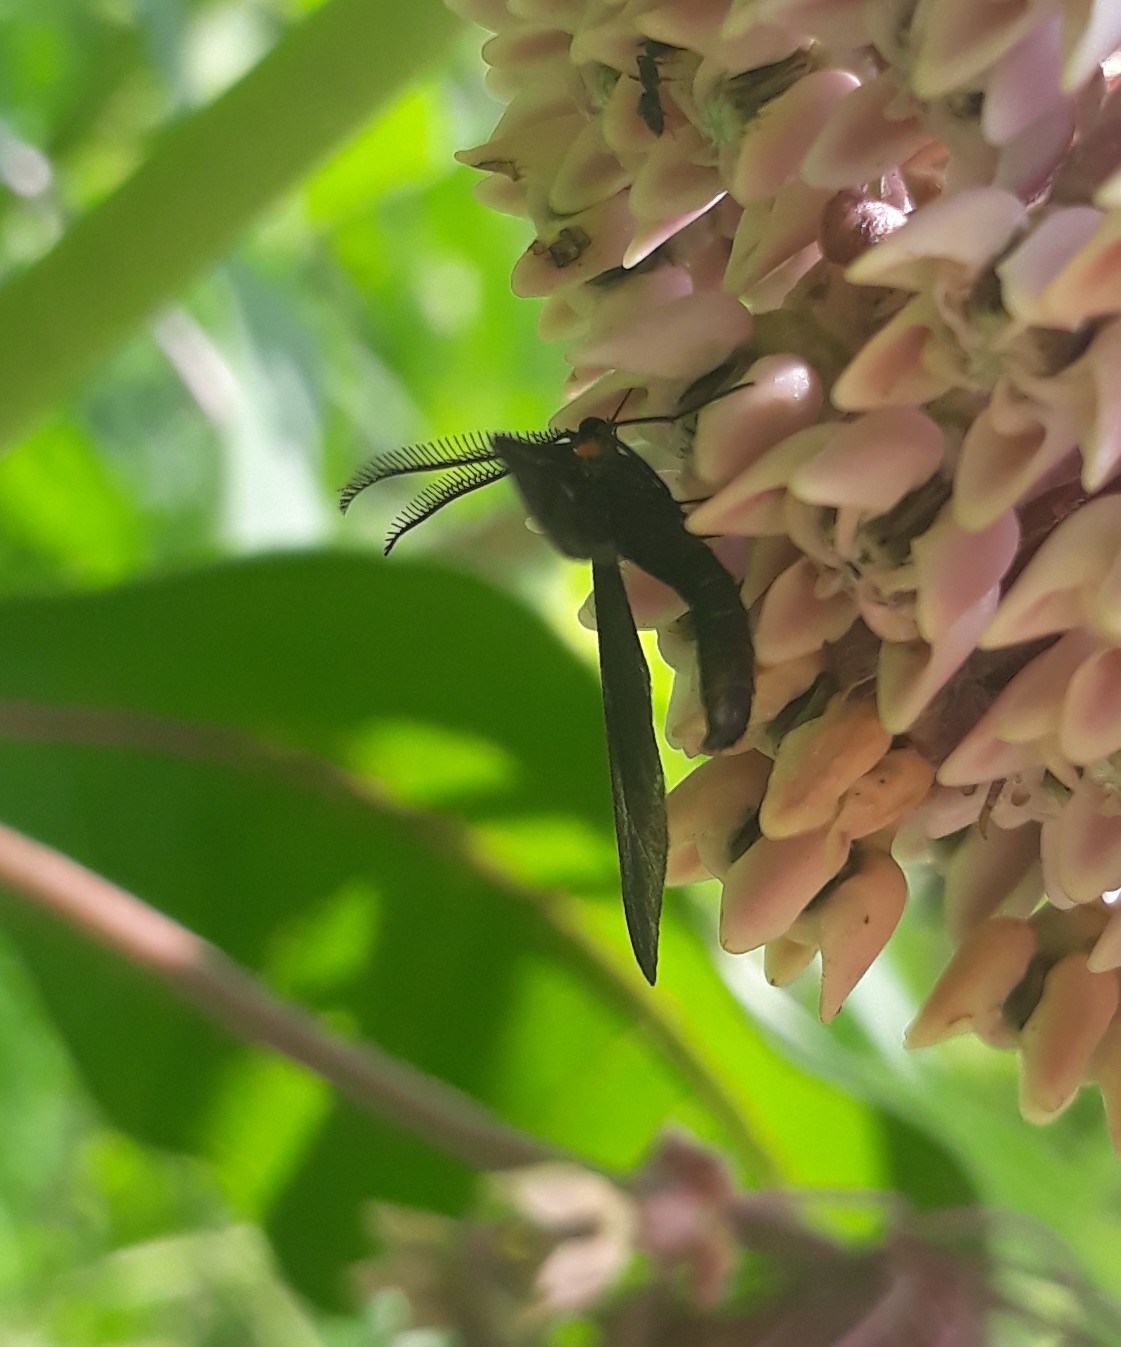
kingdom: Animalia
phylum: Arthropoda
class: Insecta
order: Lepidoptera
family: Zygaenidae
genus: Harrisina
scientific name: Harrisina americana
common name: Grapeleaf skeletonizer moth
